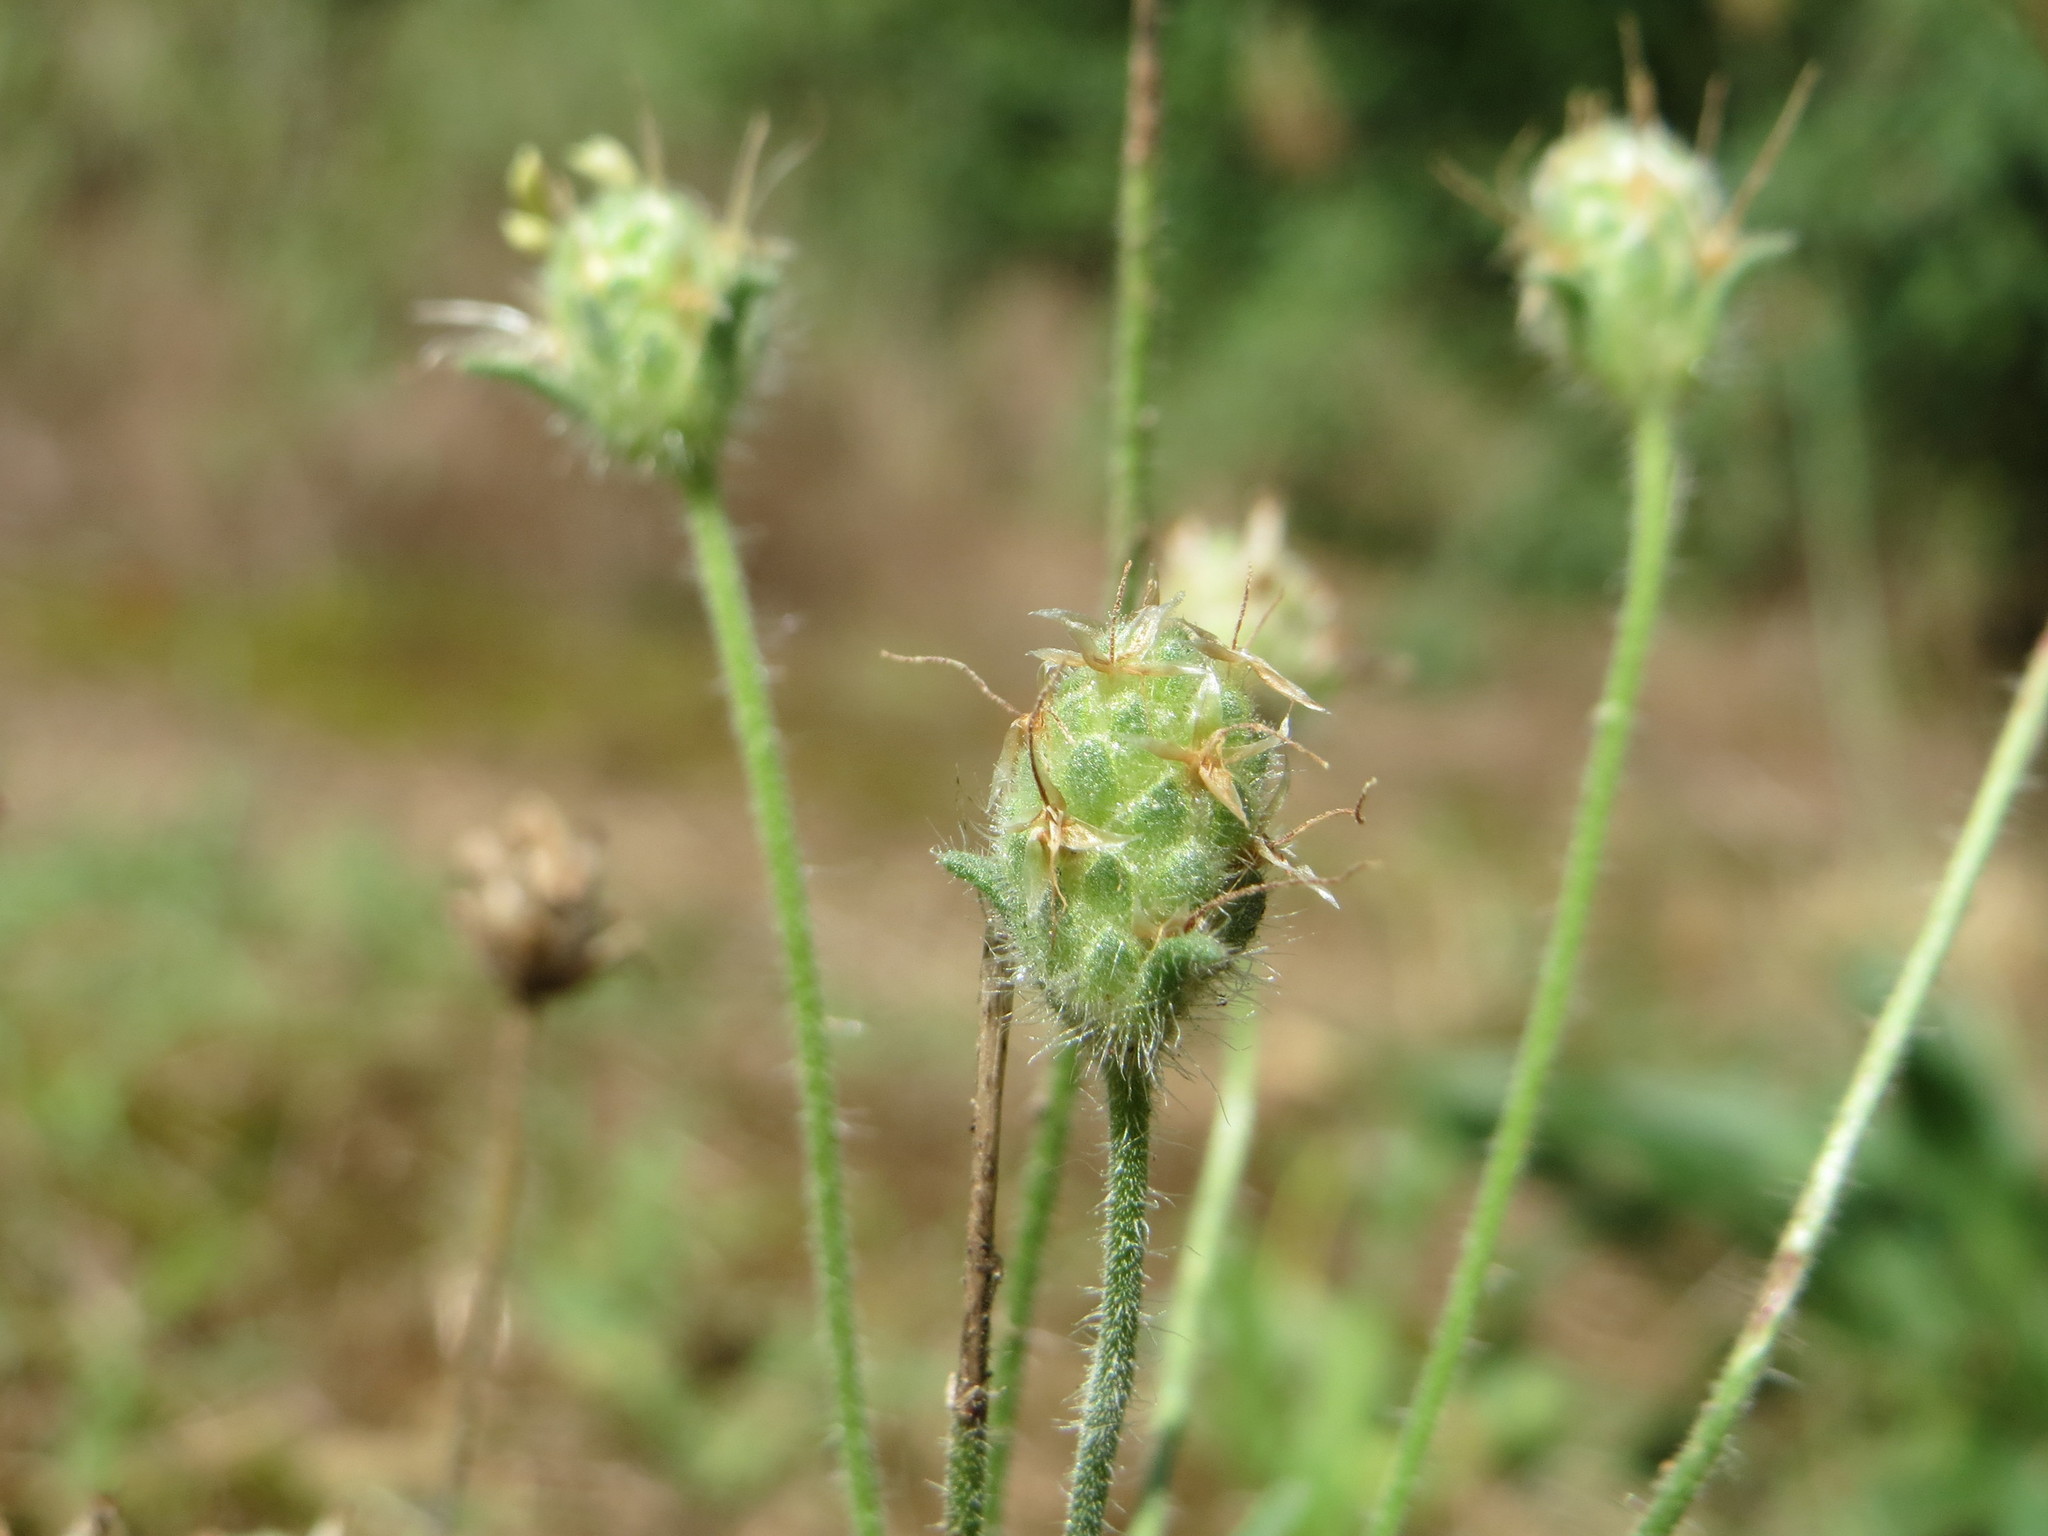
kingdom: Plantae
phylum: Tracheophyta
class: Magnoliopsida
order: Lamiales
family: Plantaginaceae
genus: Plantago
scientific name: Plantago arenaria
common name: Branched plantain
